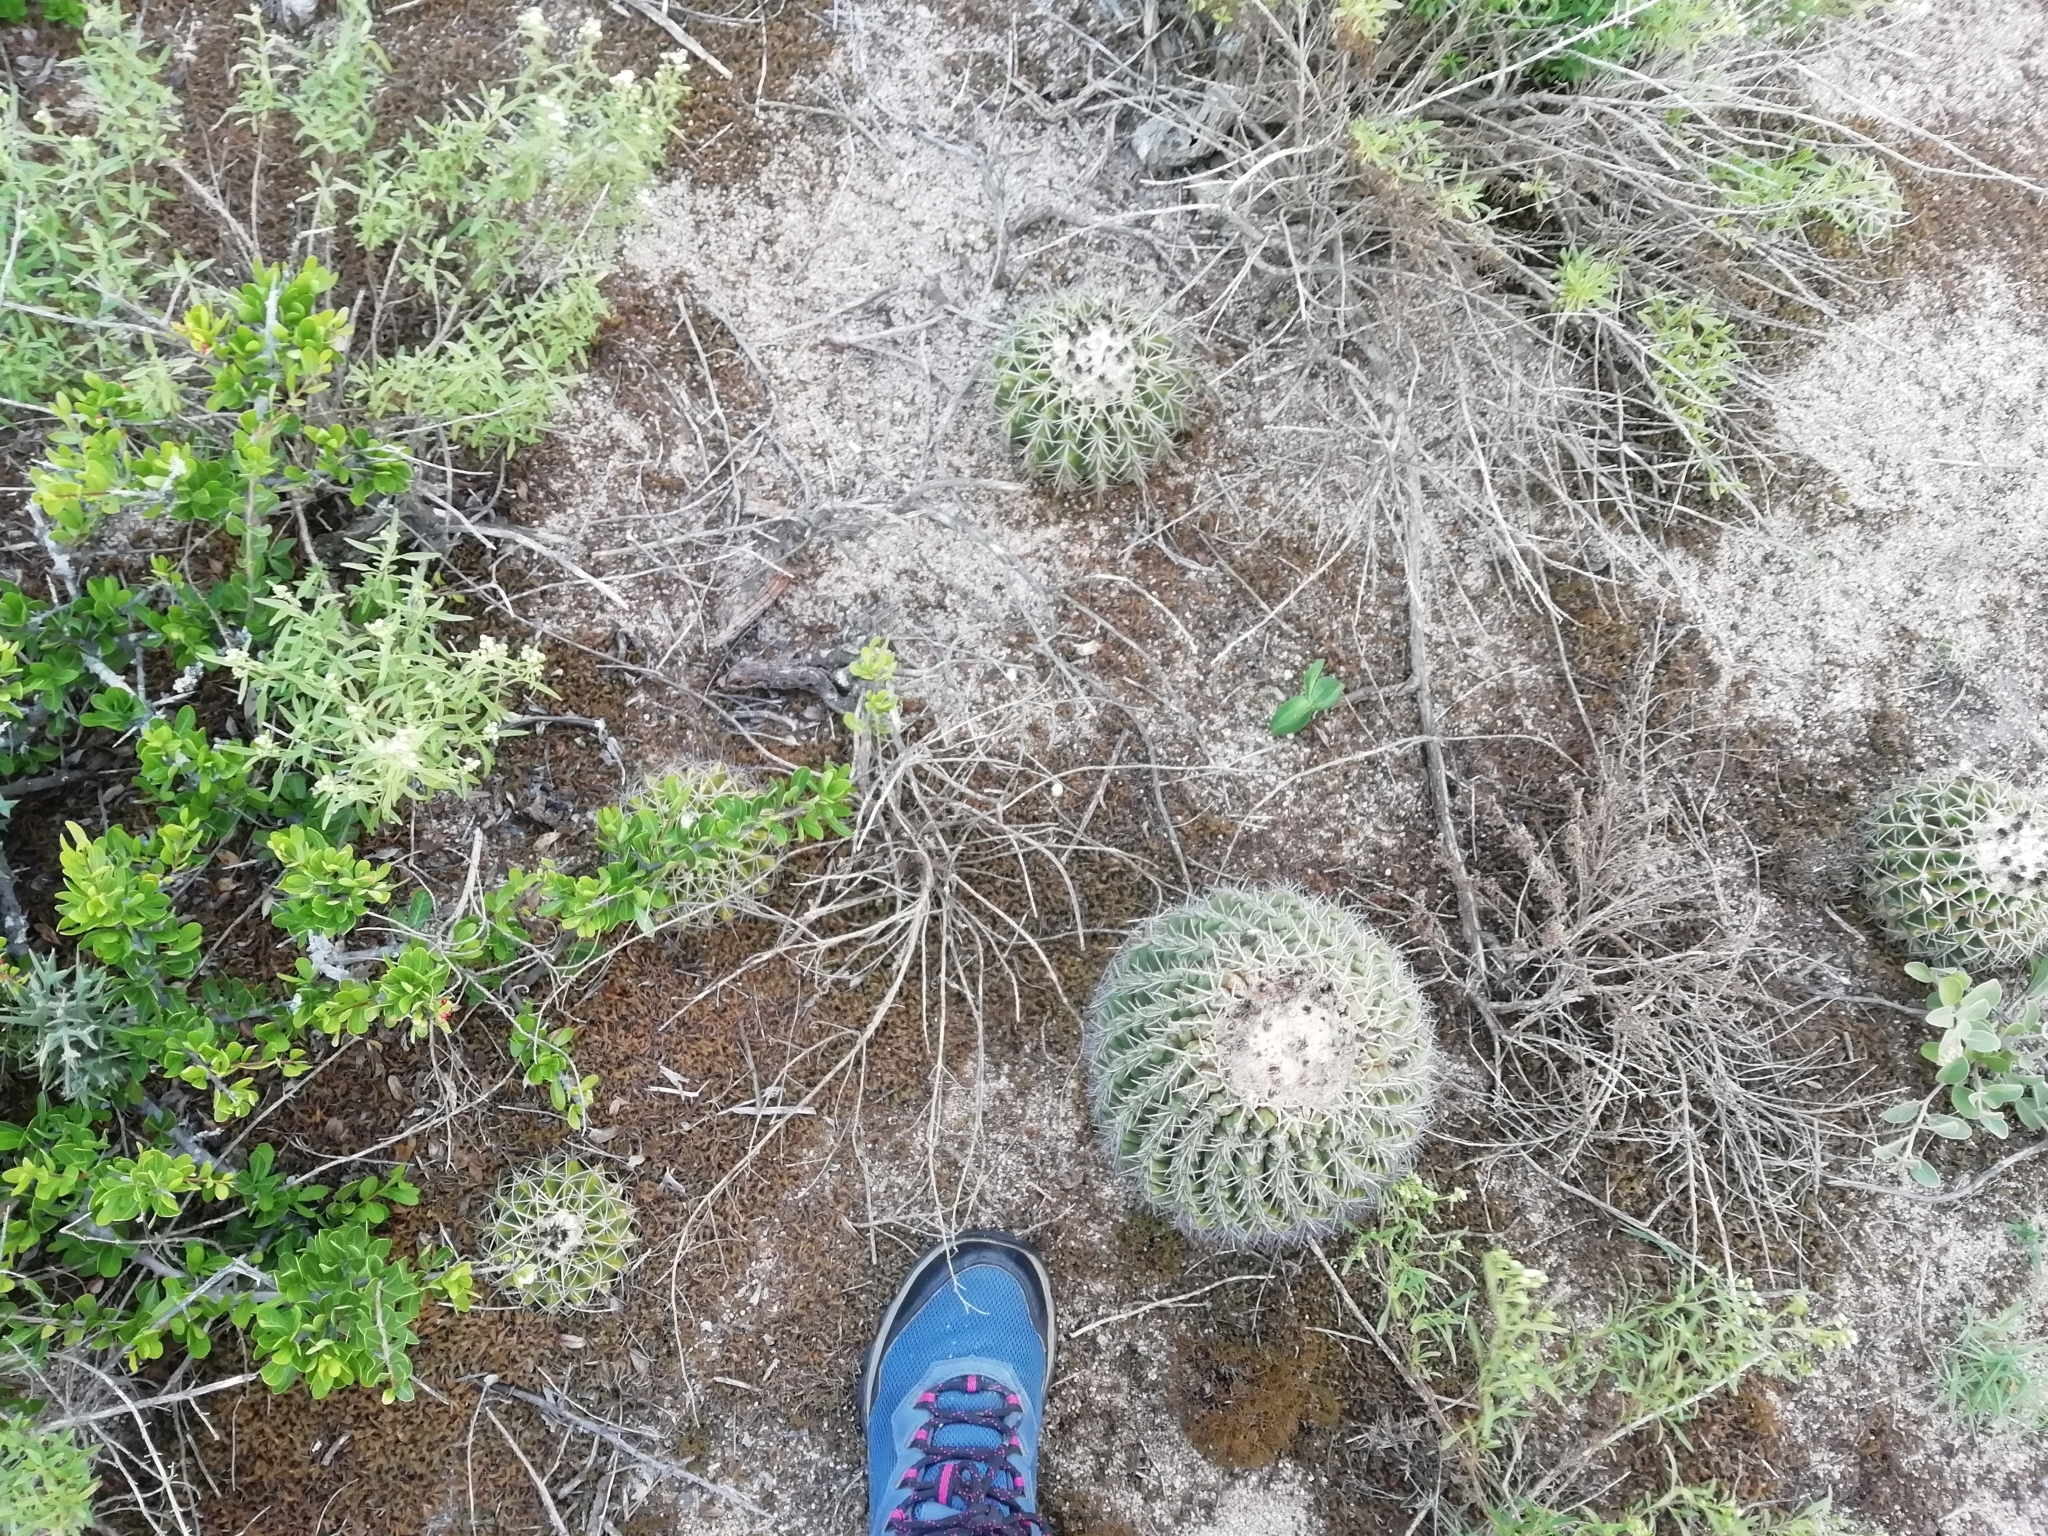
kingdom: Plantae
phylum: Tracheophyta
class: Magnoliopsida
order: Caryophyllales
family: Cactaceae
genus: Parodia
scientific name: Parodia erinacea
